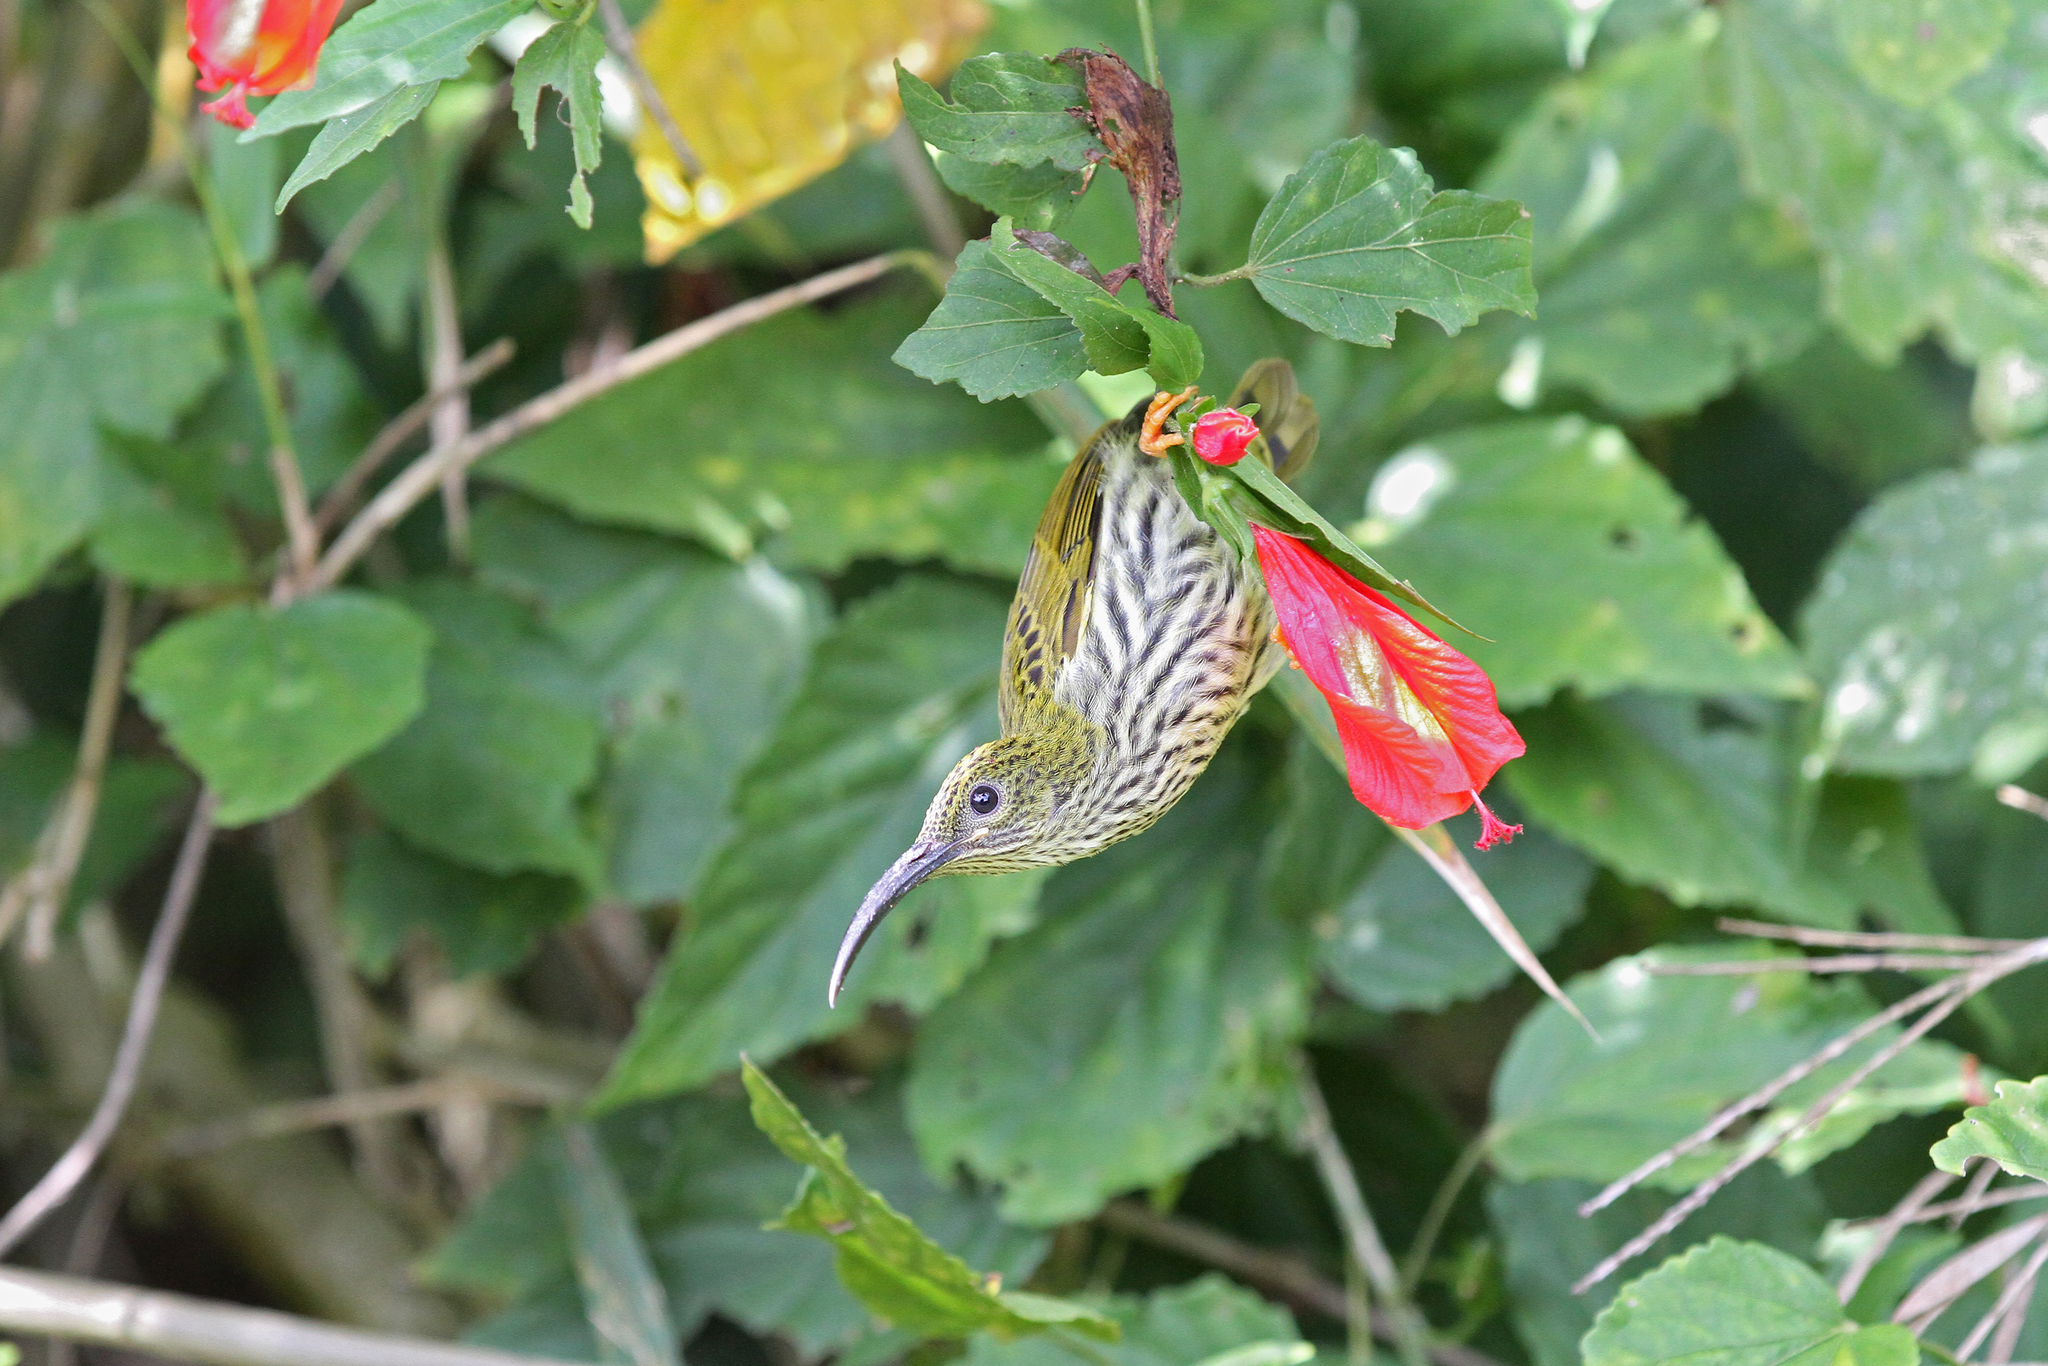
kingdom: Animalia
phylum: Chordata
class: Aves
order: Passeriformes
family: Nectariniidae
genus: Arachnothera
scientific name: Arachnothera magna
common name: Streaked spiderhunter
